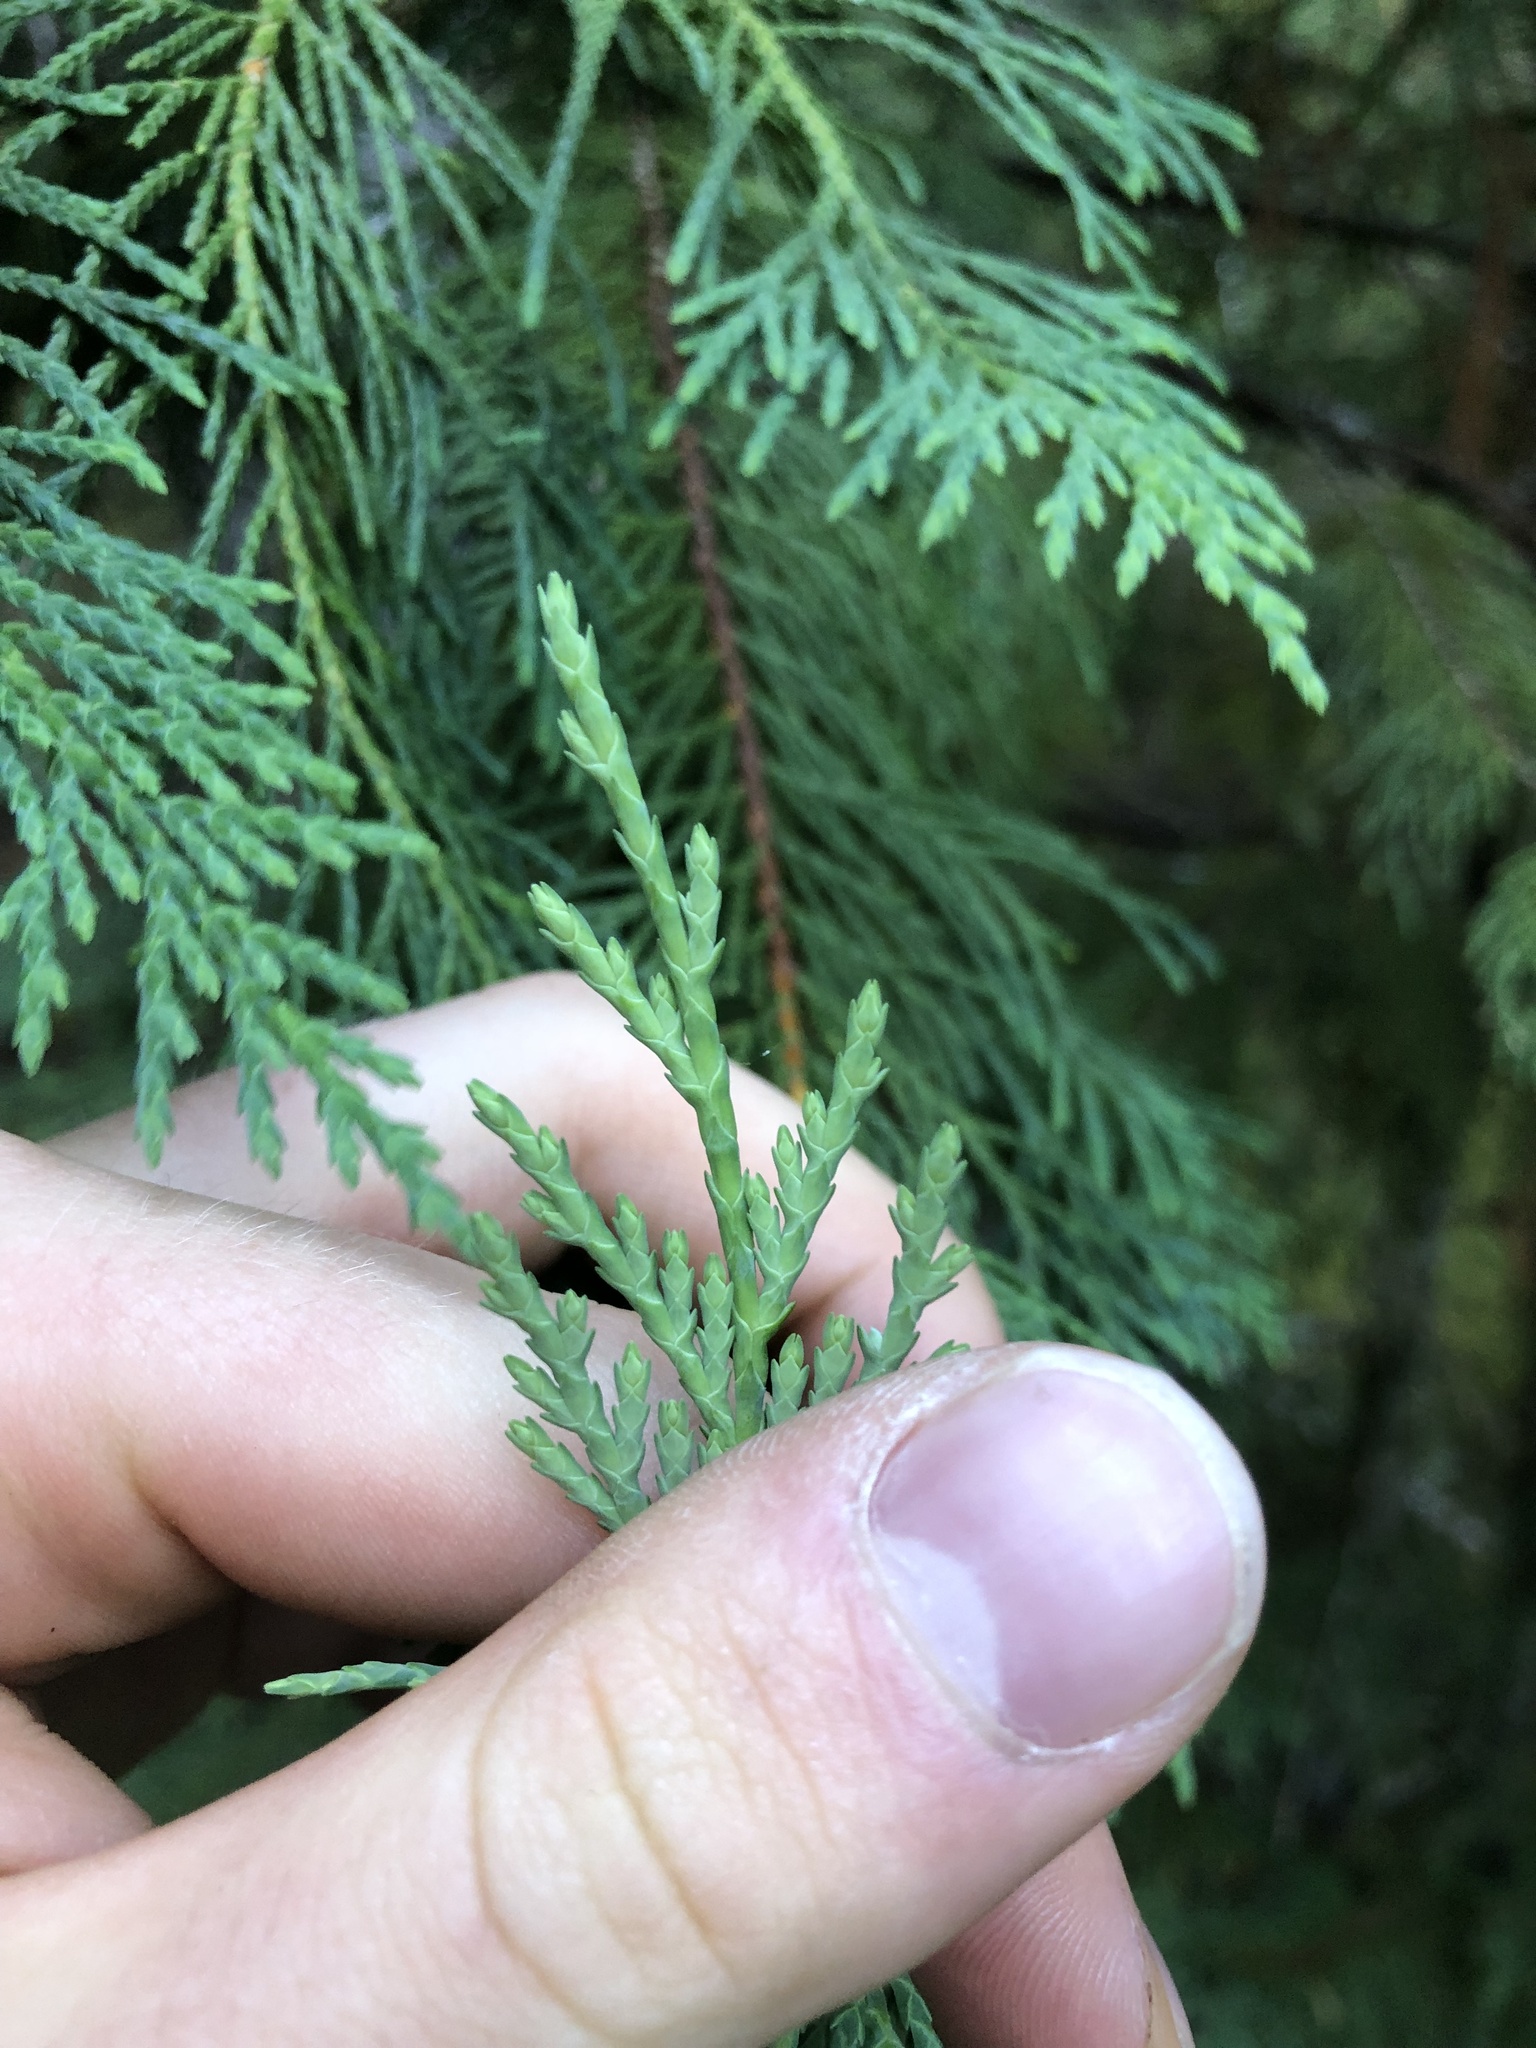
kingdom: Plantae
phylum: Tracheophyta
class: Pinopsida
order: Pinales
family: Cupressaceae
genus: Xanthocyparis
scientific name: Xanthocyparis nootkatensis
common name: Nootka cypress
